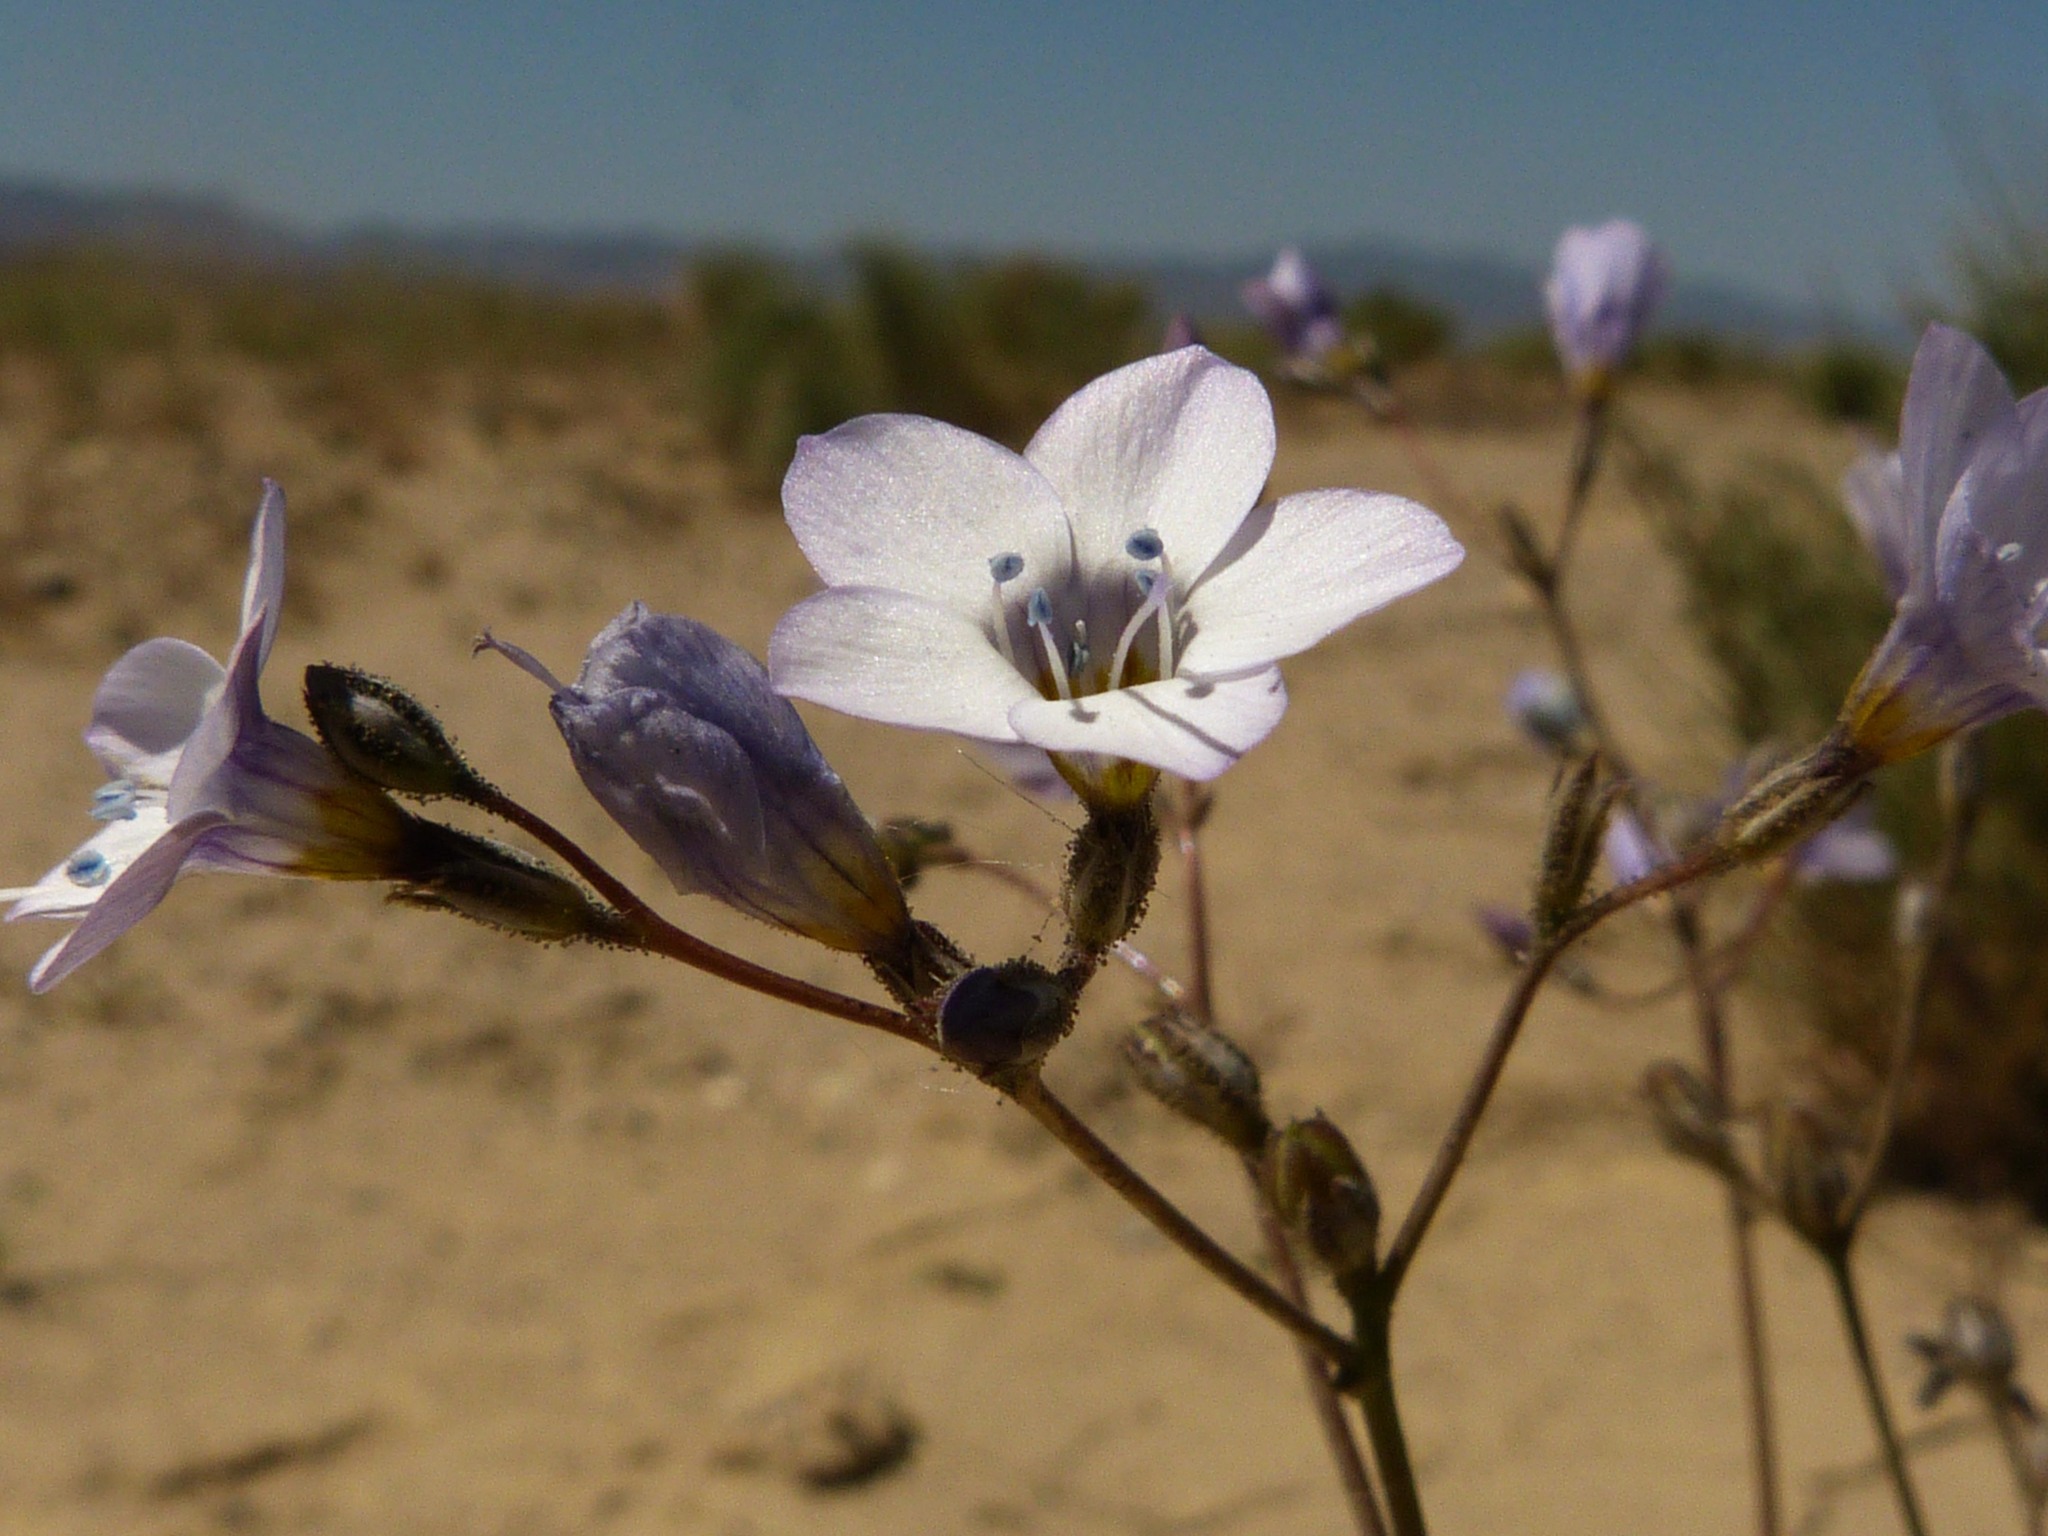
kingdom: Plantae
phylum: Tracheophyta
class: Magnoliopsida
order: Ericales
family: Polemoniaceae
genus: Gilia
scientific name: Gilia latiflora
